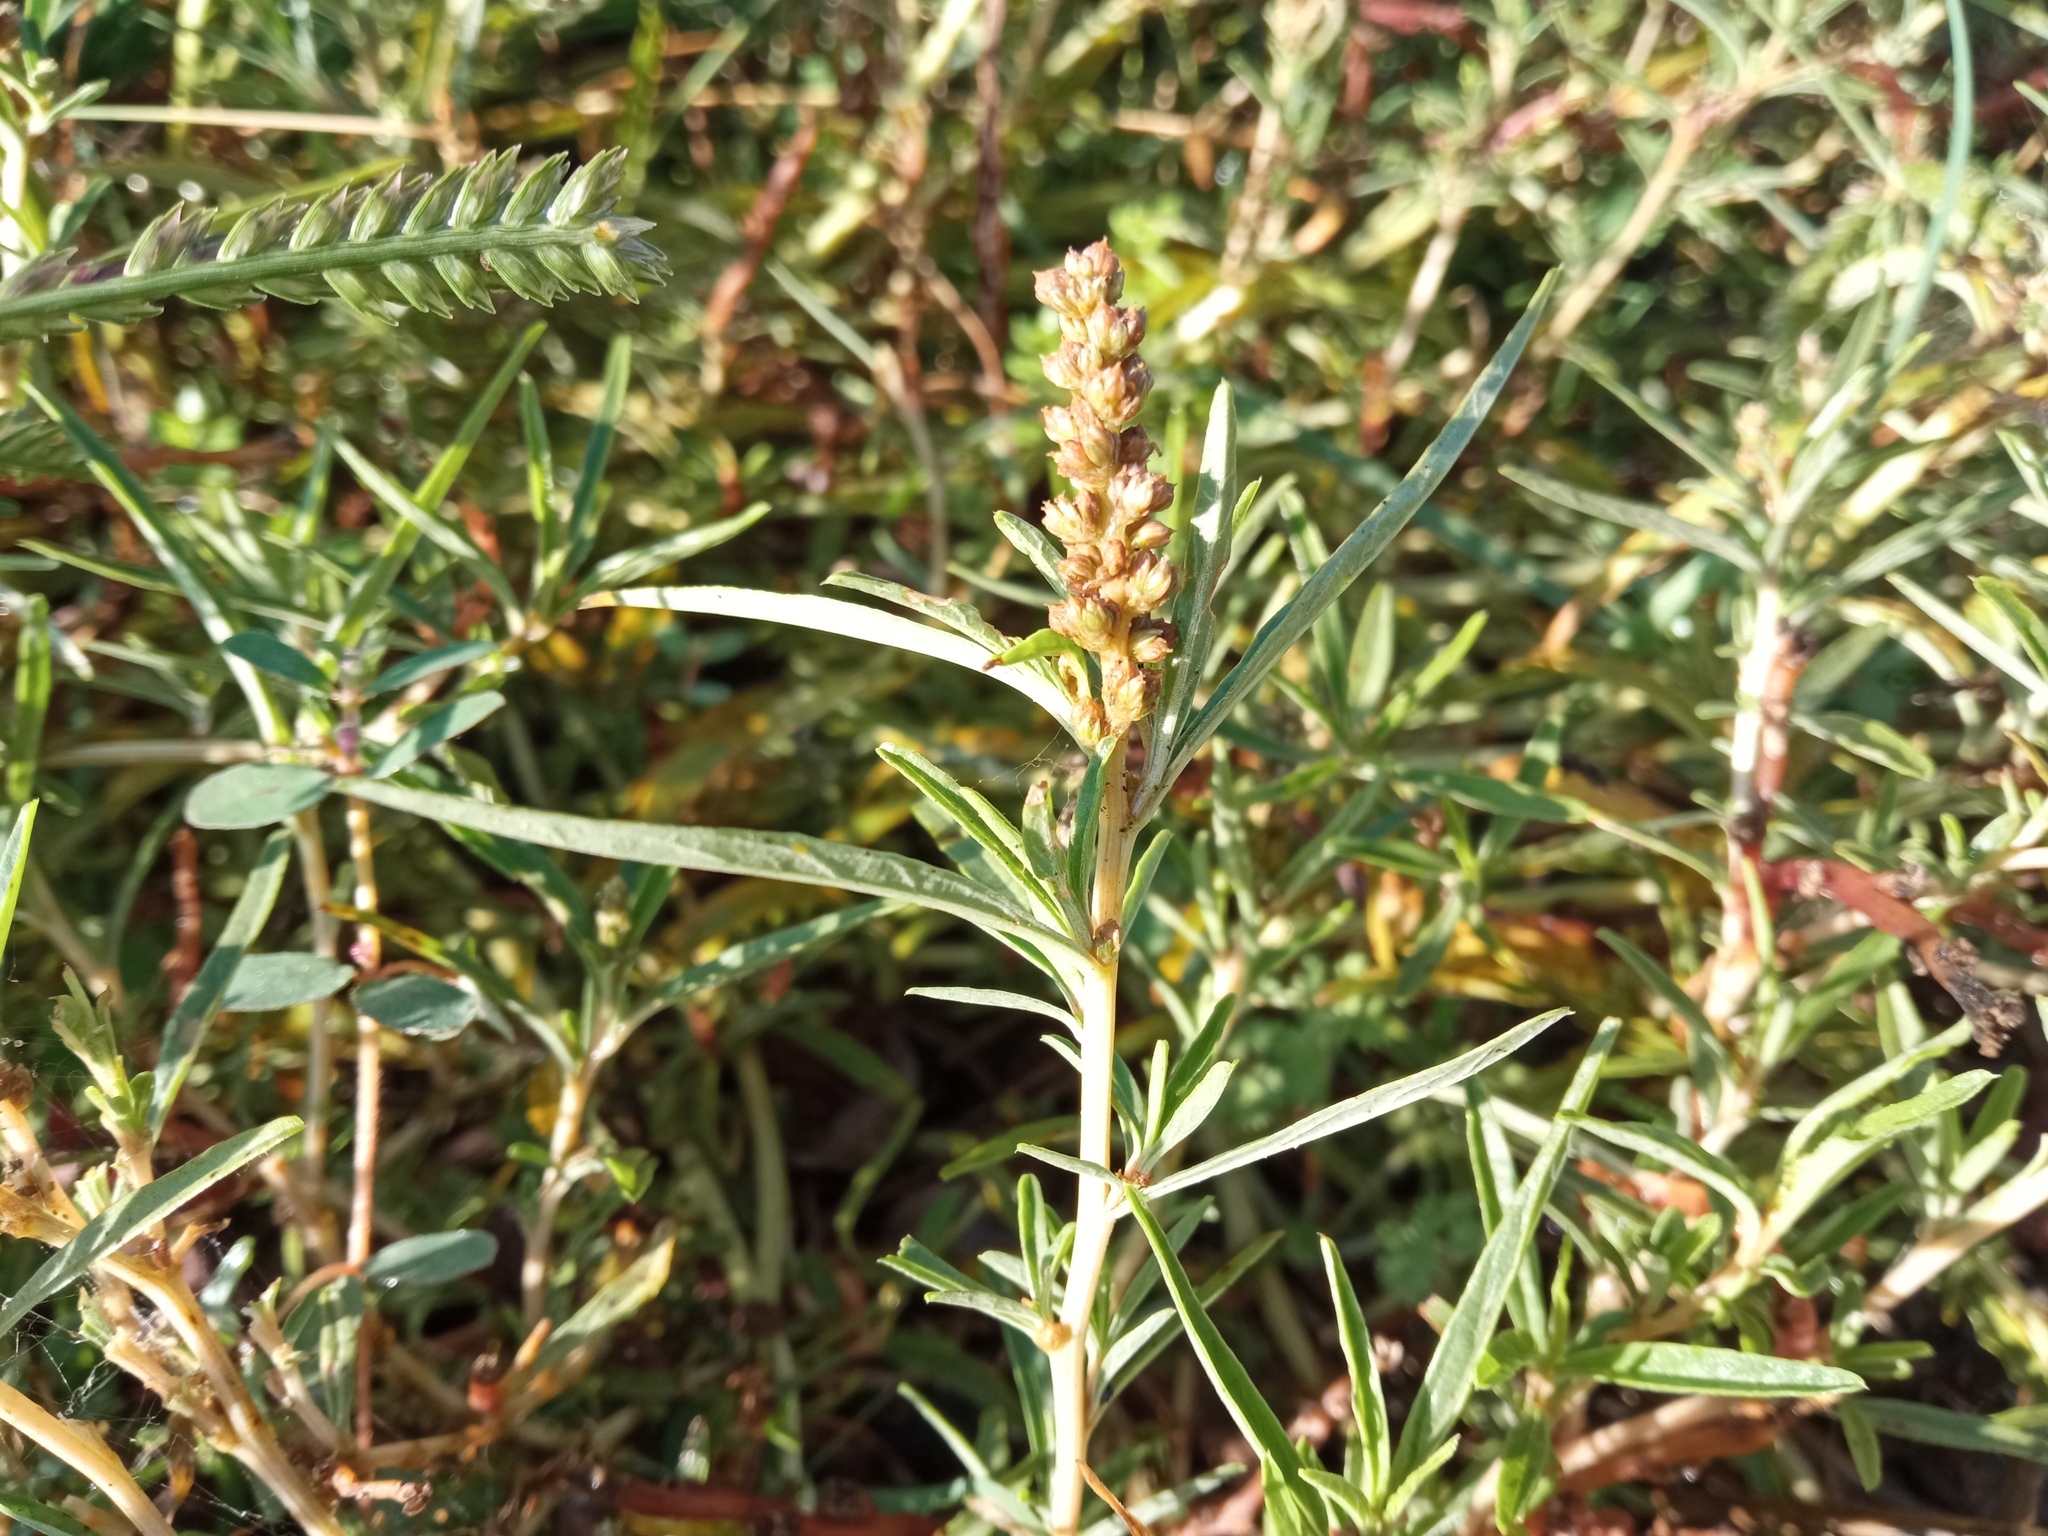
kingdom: Plantae
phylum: Tracheophyta
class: Magnoliopsida
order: Caryophyllales
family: Amaranthaceae
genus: Amaranthus
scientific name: Amaranthus muricatus
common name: African amaranth
